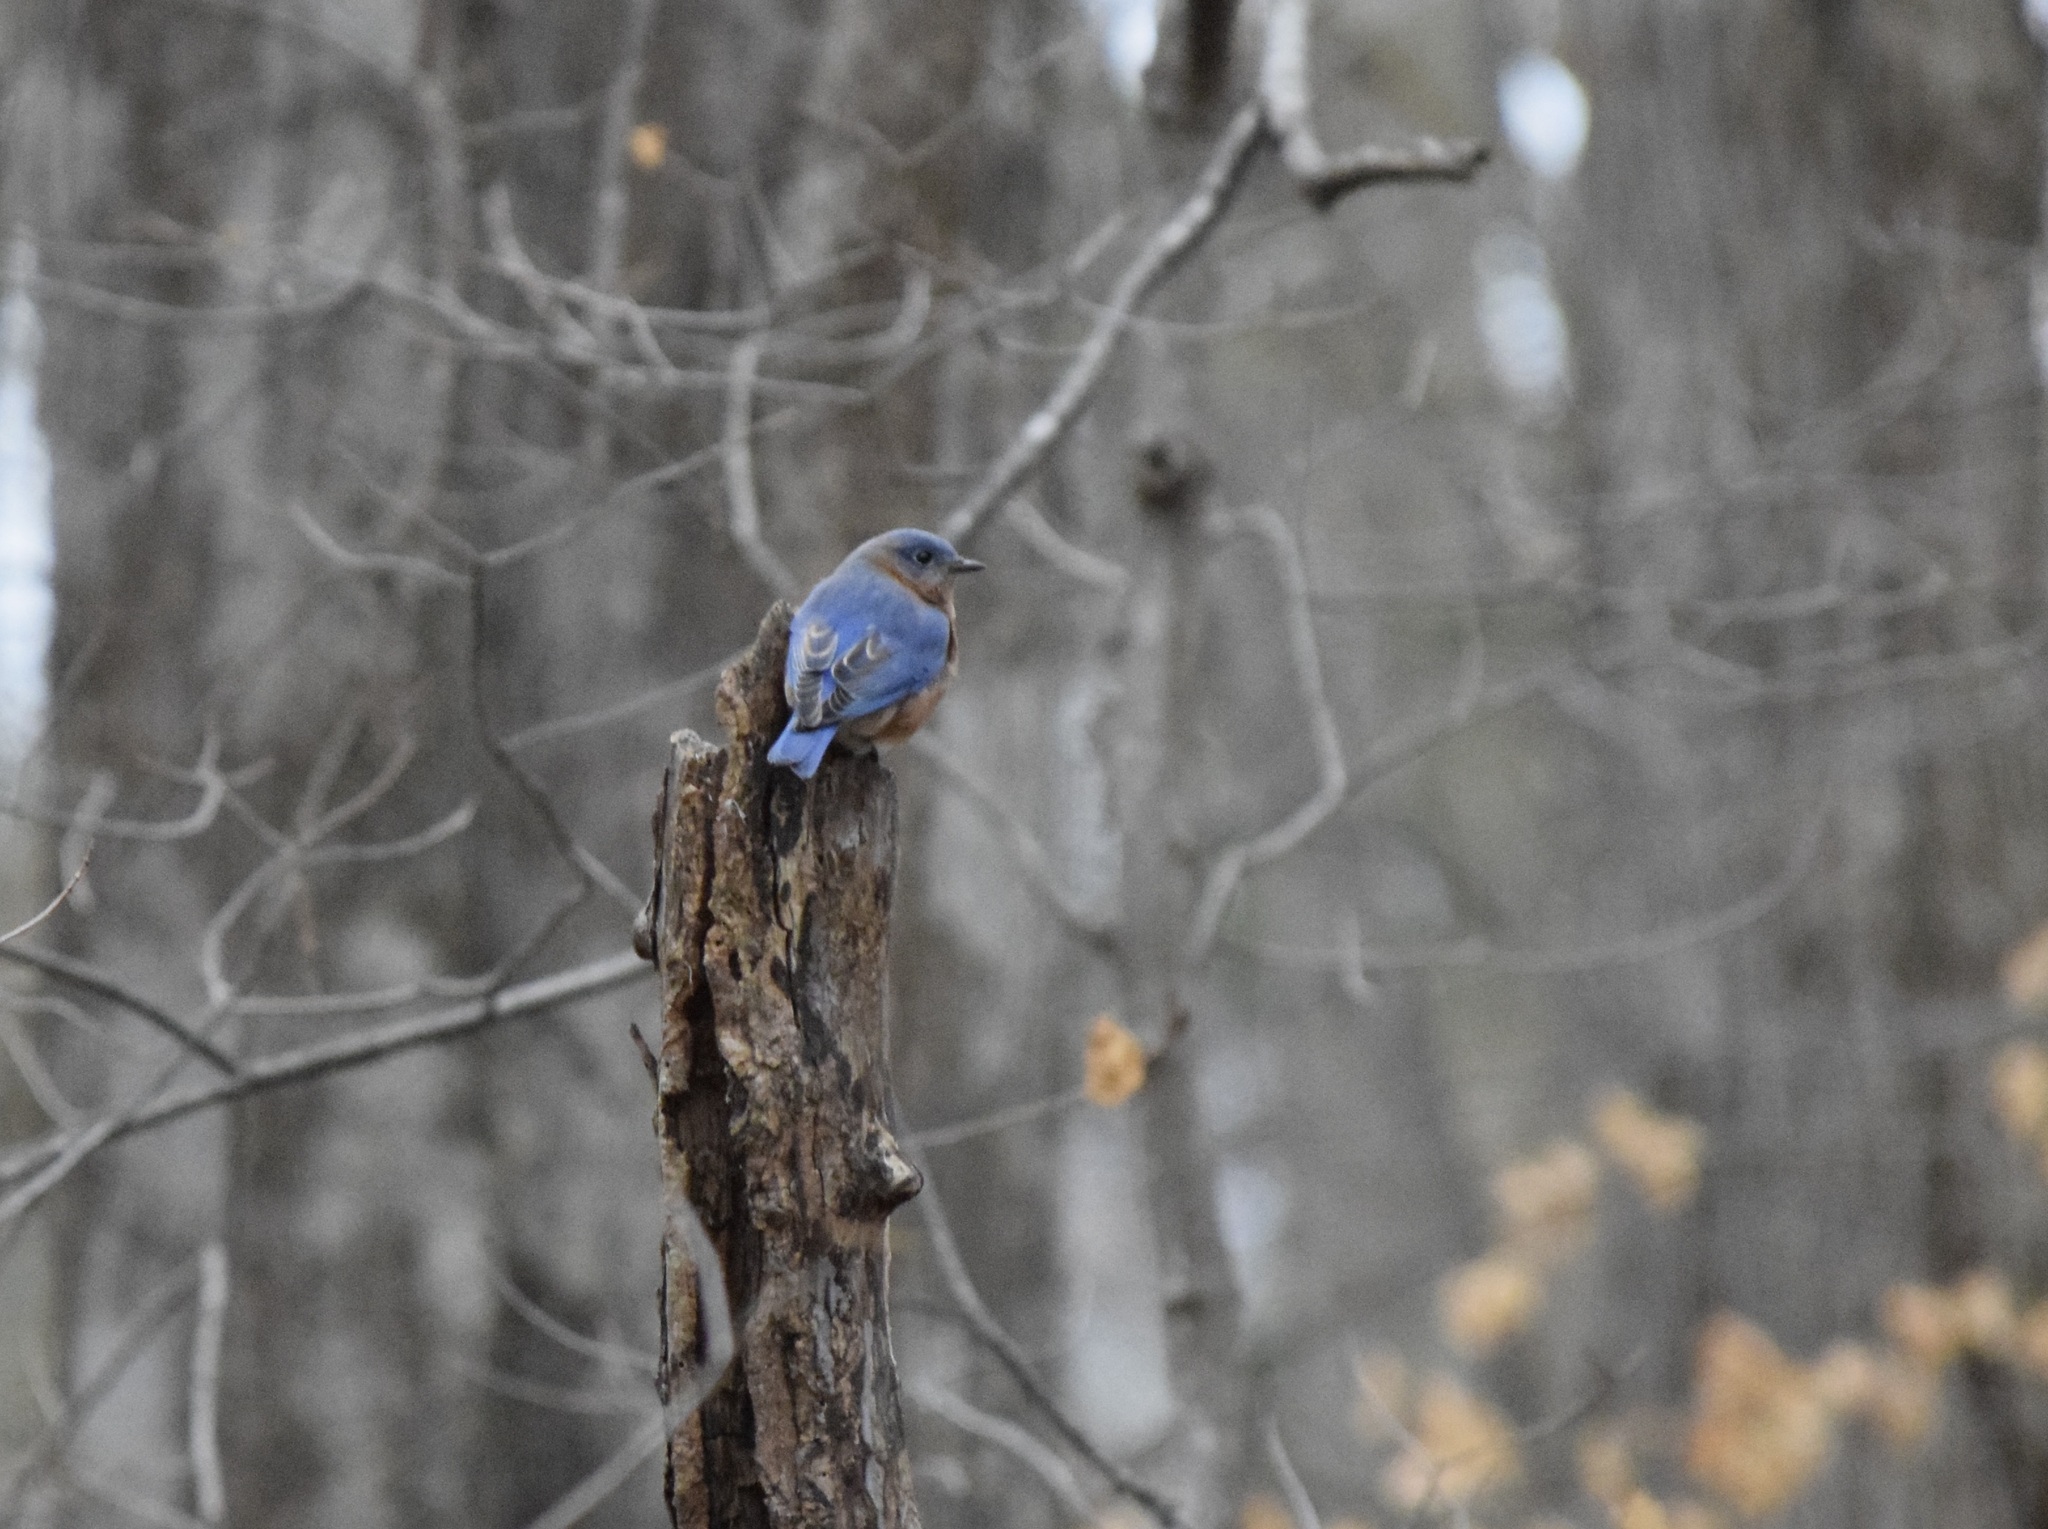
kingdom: Animalia
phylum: Chordata
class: Aves
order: Passeriformes
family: Turdidae
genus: Sialia
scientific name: Sialia sialis
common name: Eastern bluebird
